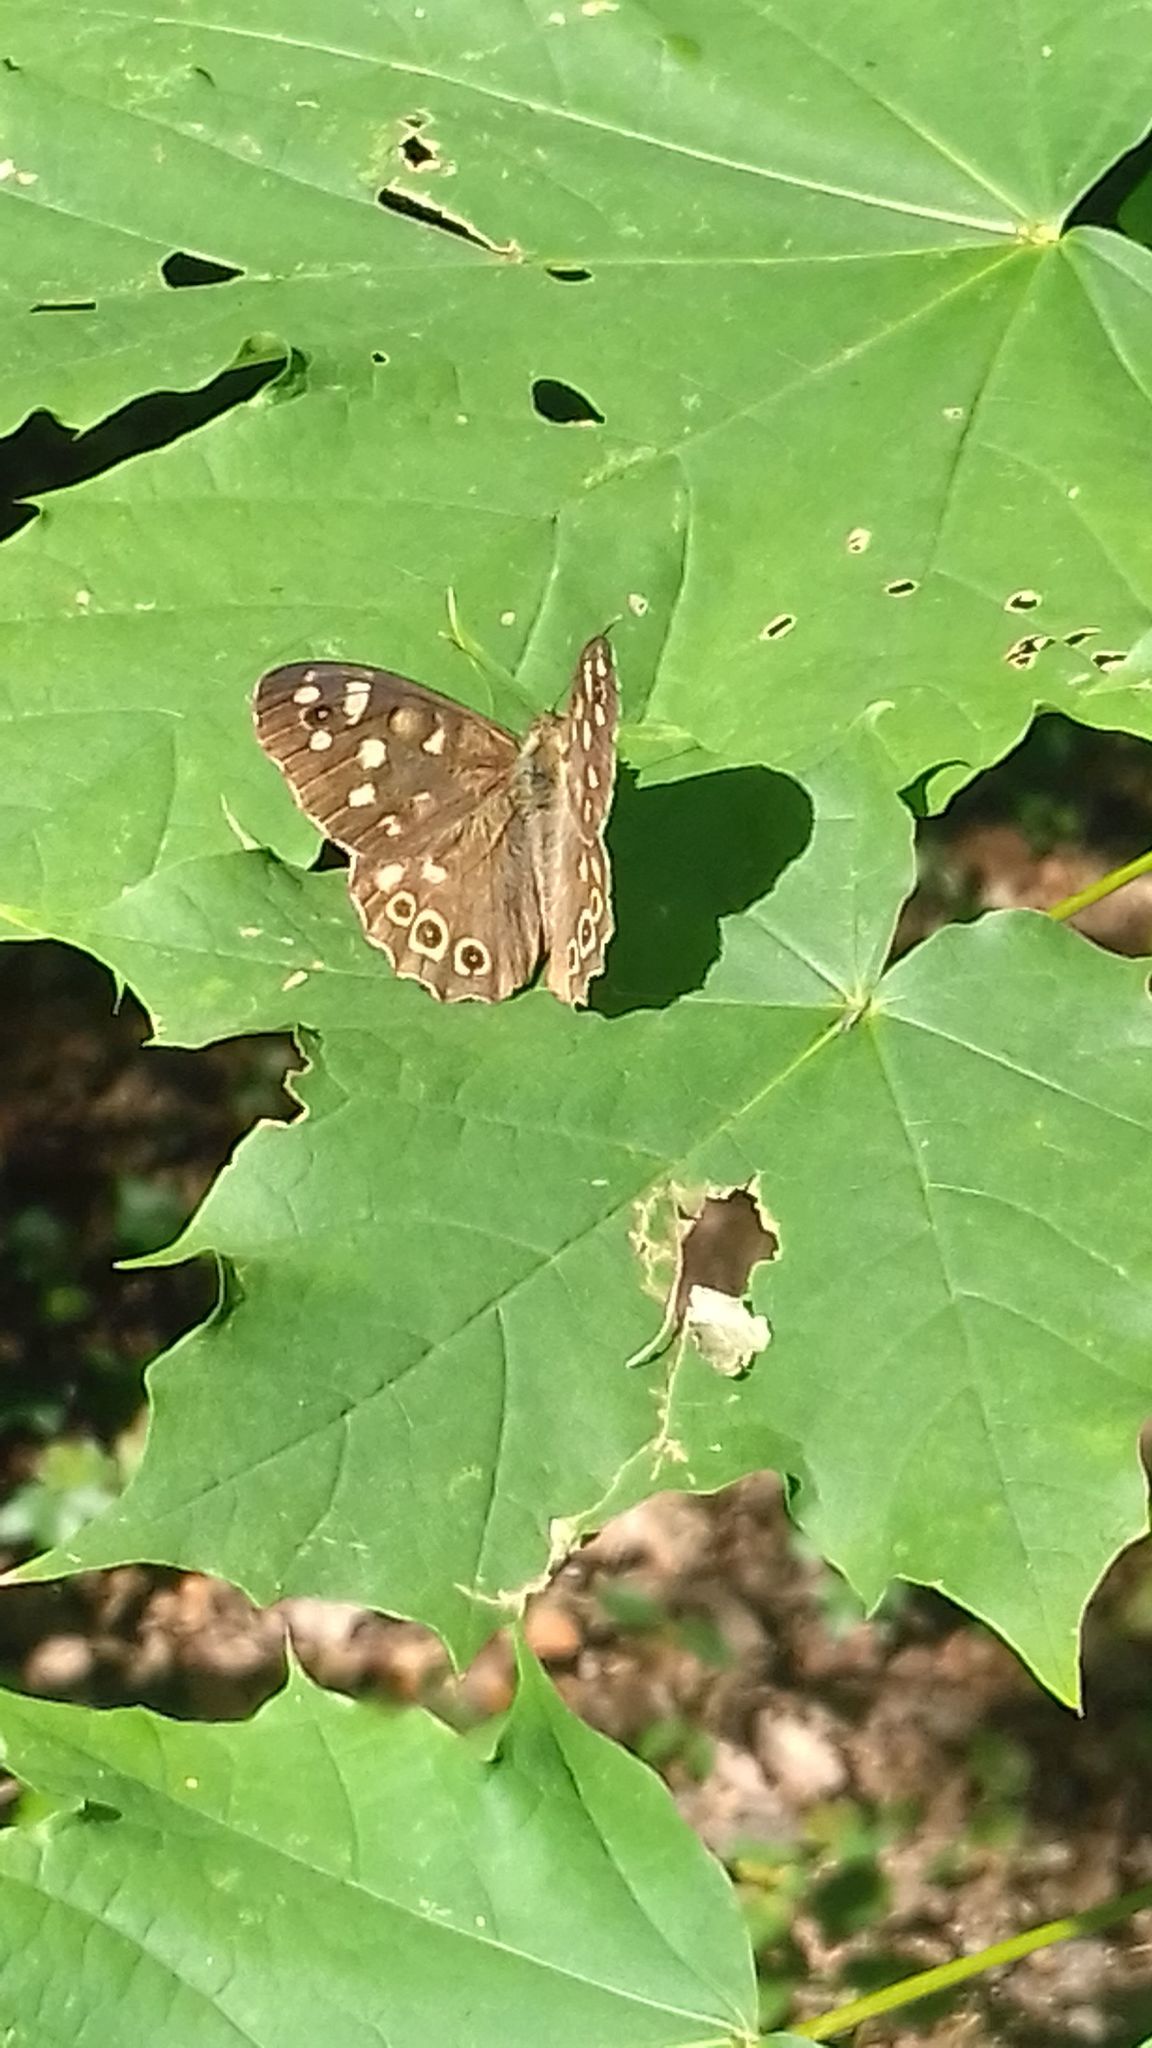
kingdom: Animalia
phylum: Arthropoda
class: Insecta
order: Lepidoptera
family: Nymphalidae
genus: Pararge
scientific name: Pararge aegeria
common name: Speckled wood
